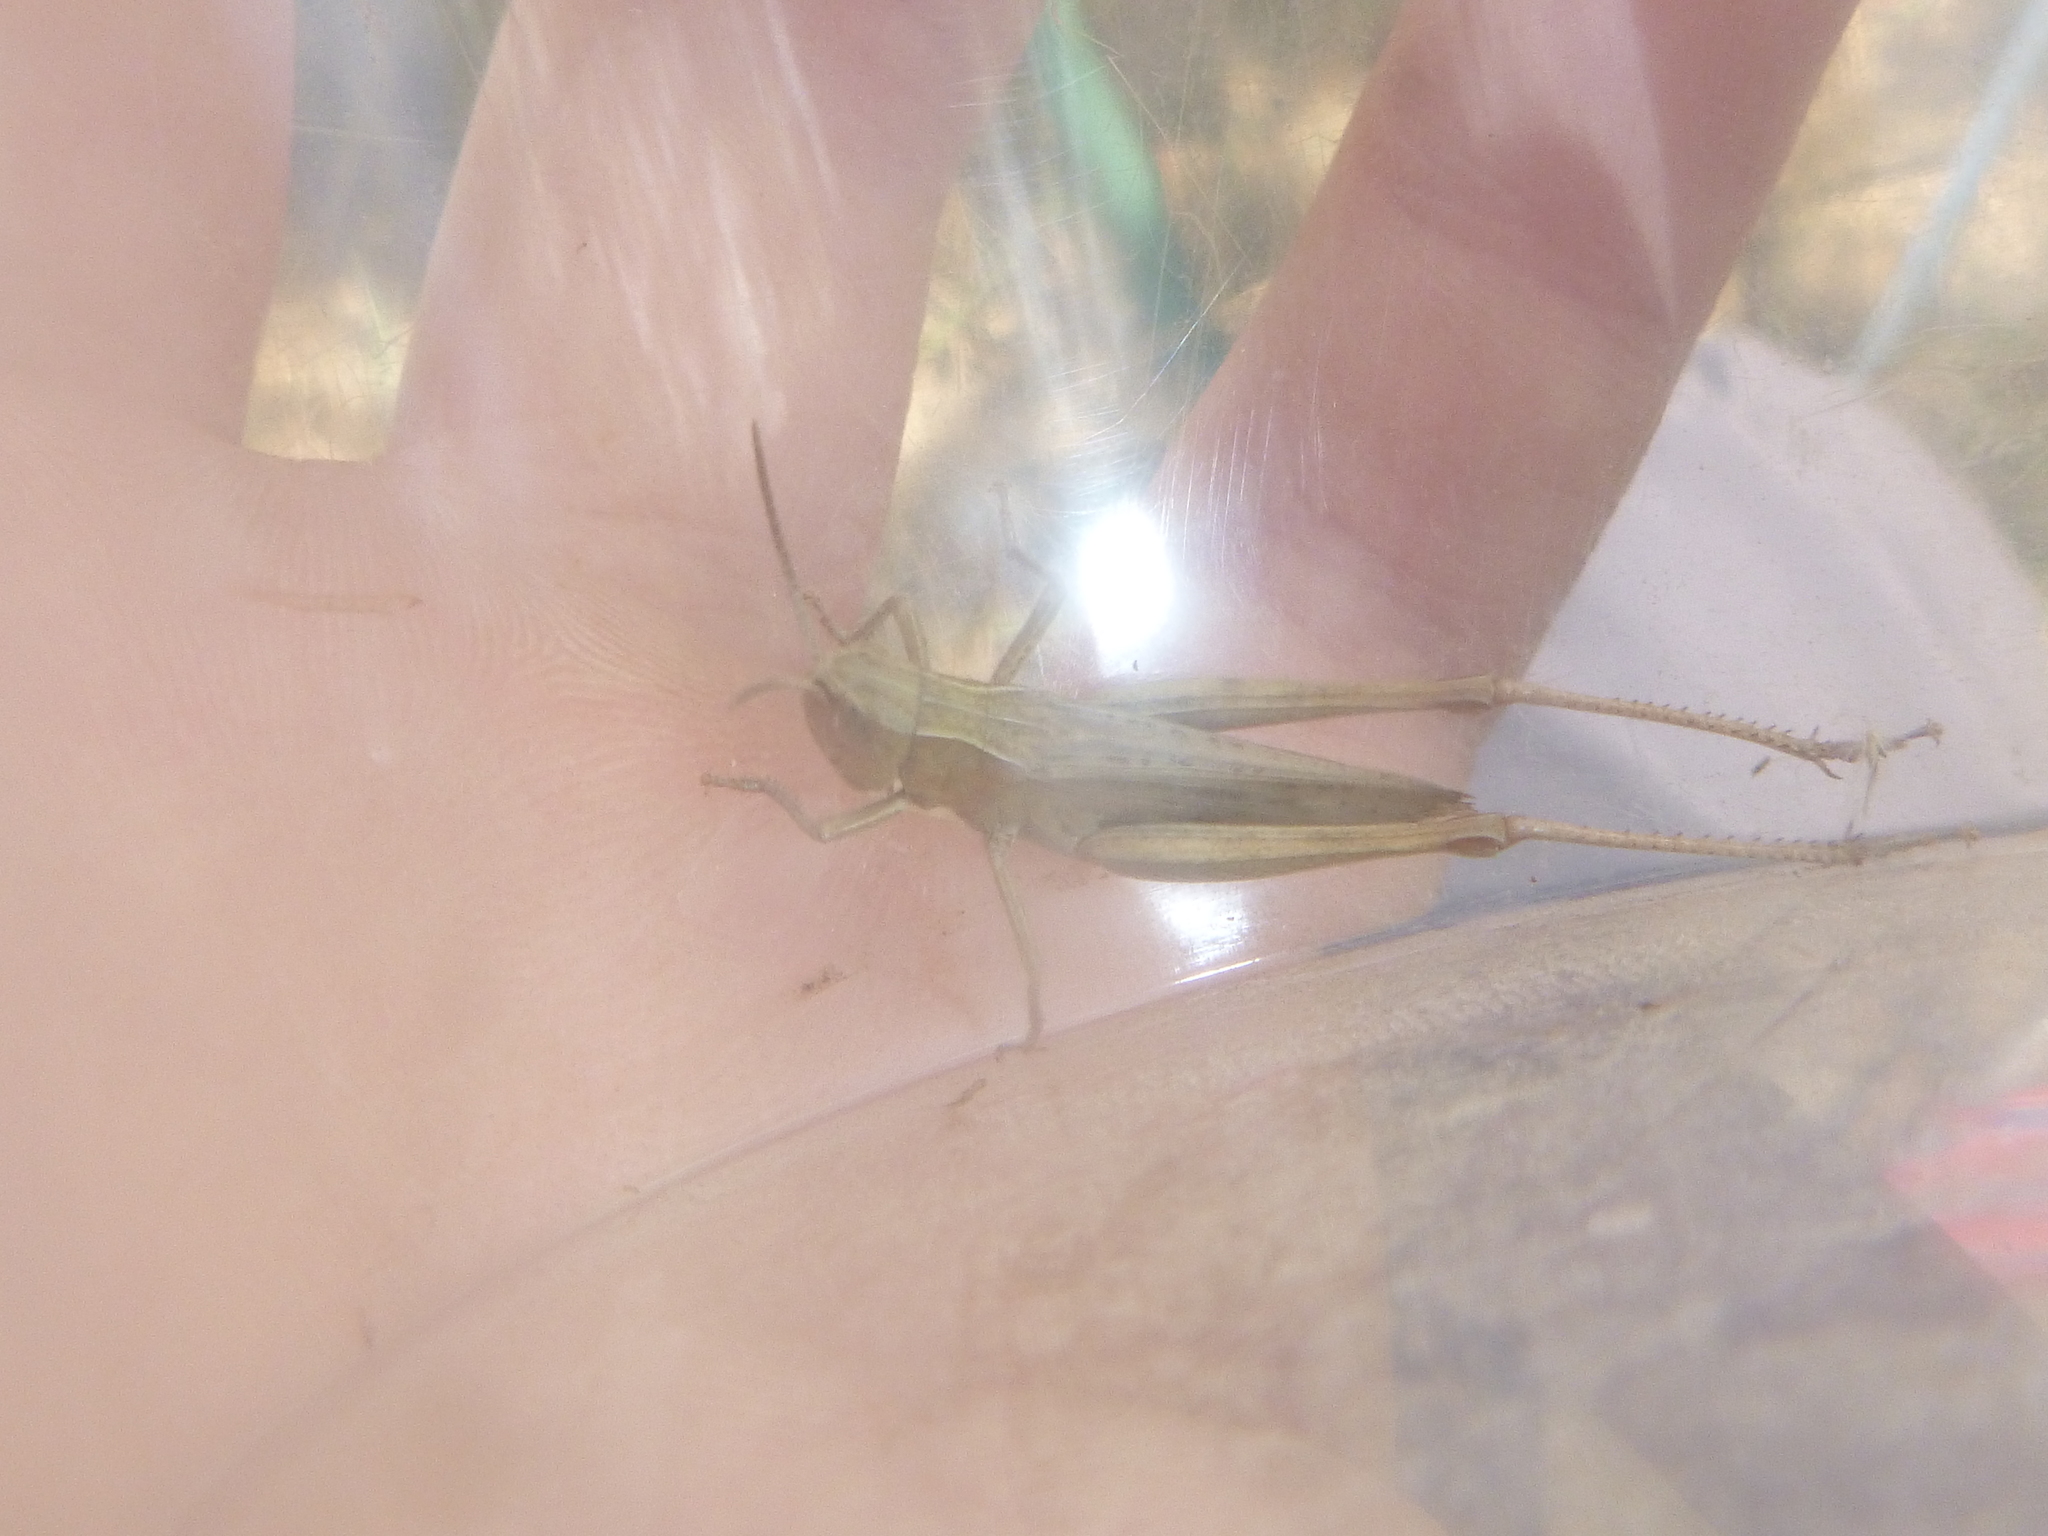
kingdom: Animalia
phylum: Arthropoda
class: Insecta
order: Orthoptera
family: Acrididae
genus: Chorthippus
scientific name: Chorthippus dorsatus
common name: Steppe grasshopper
